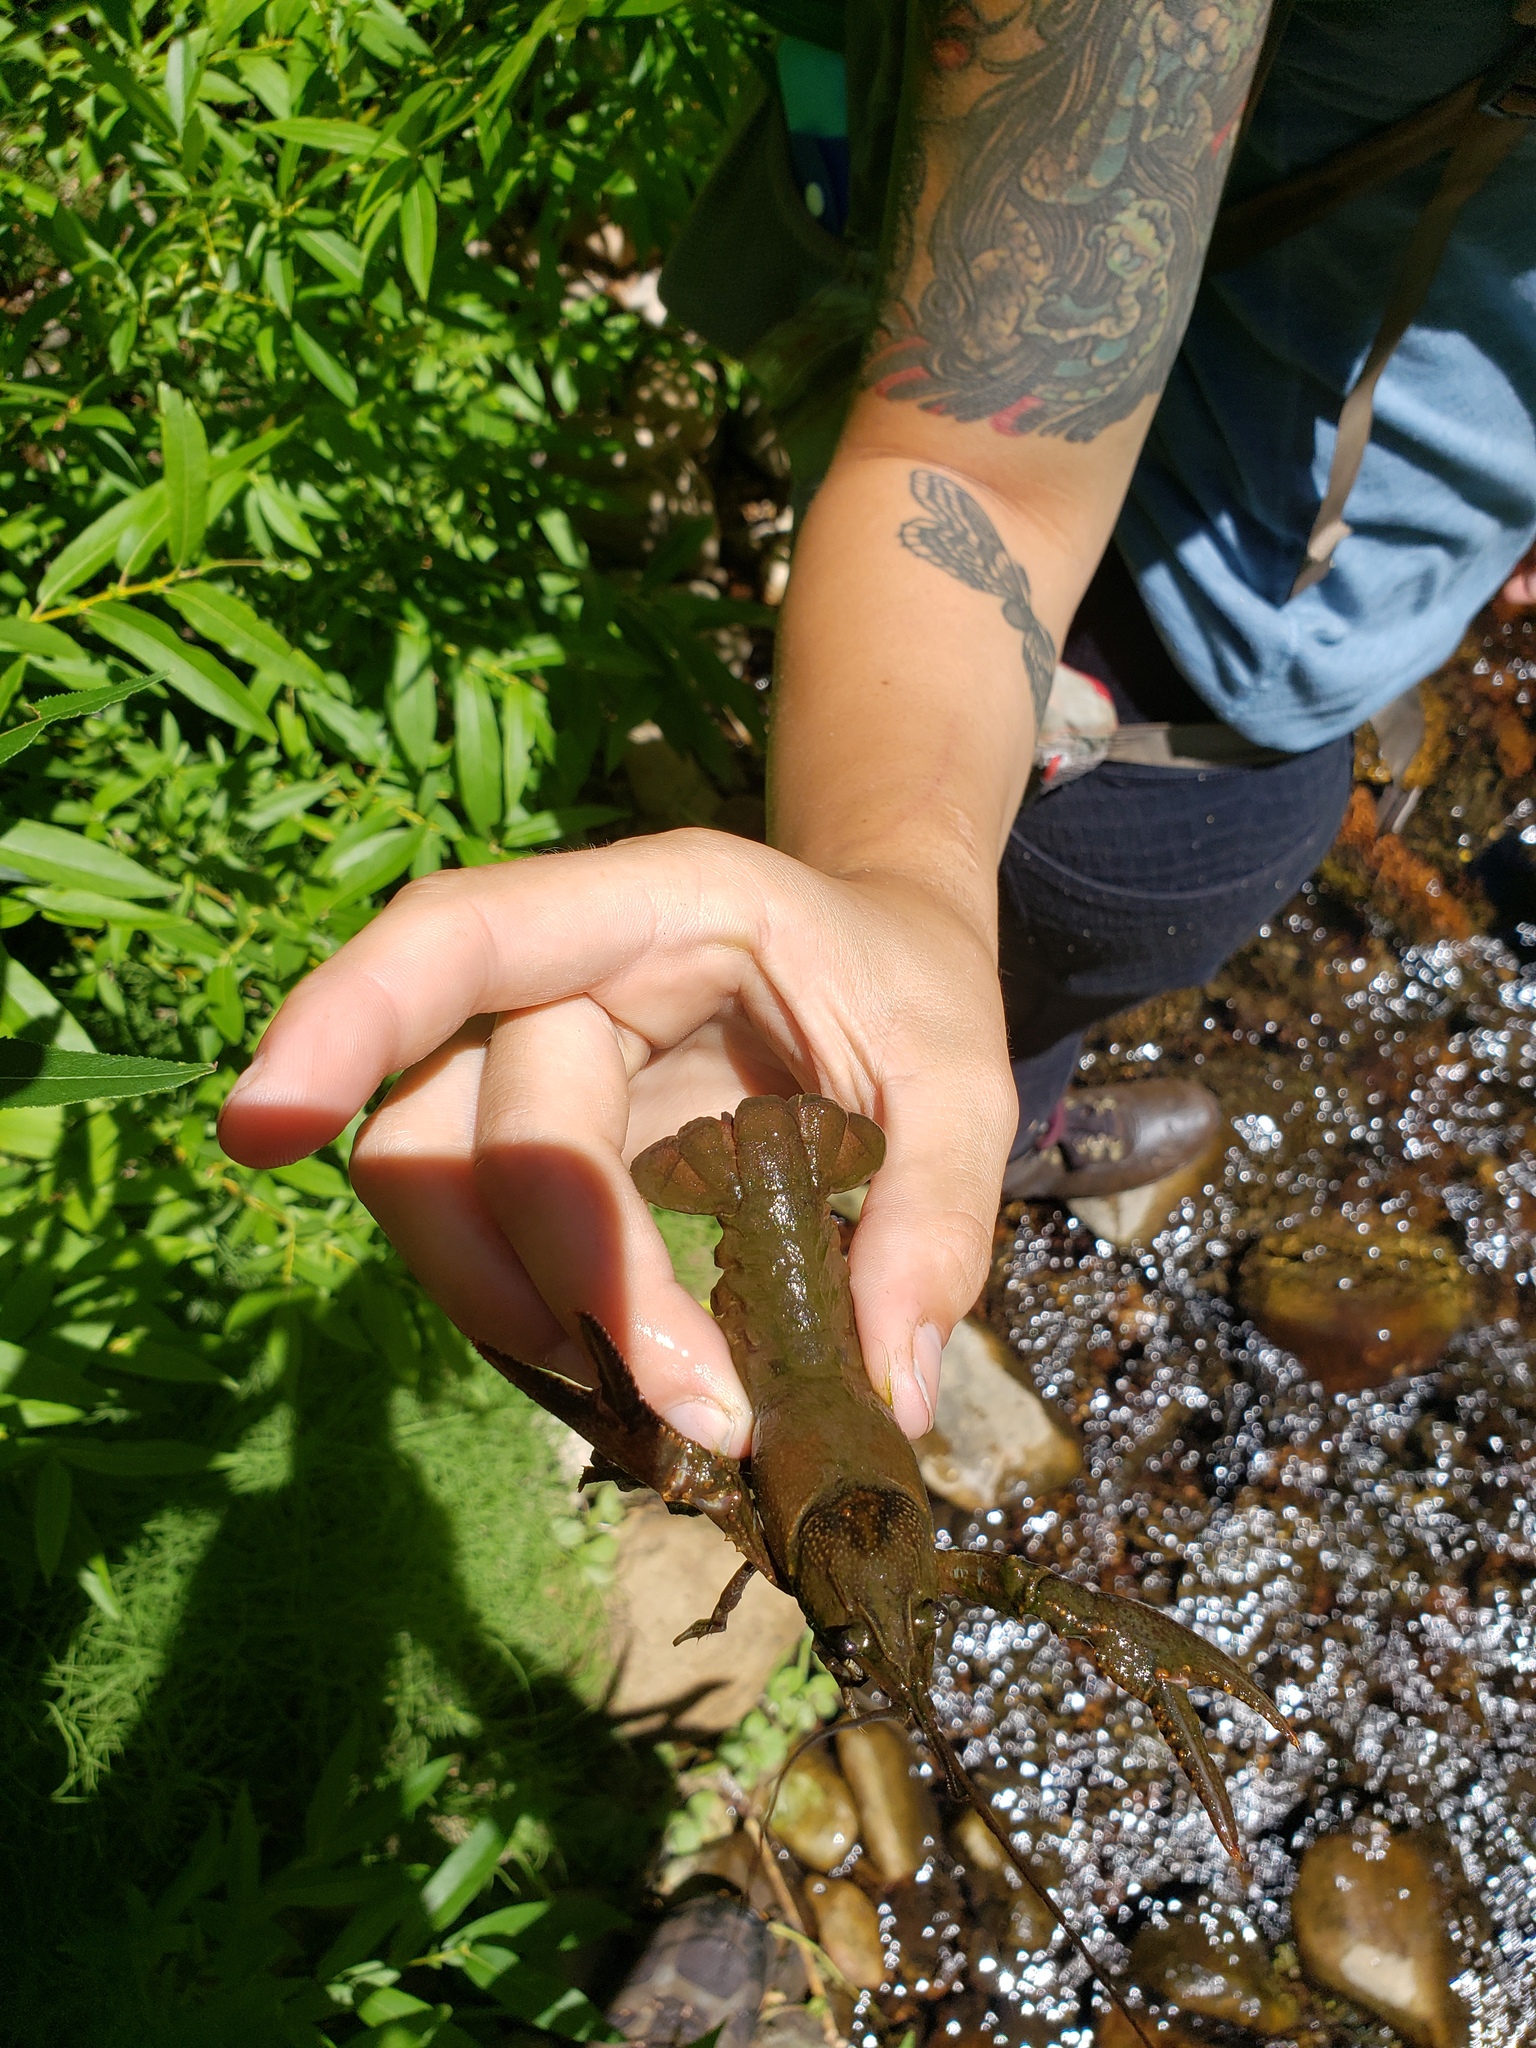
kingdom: Animalia
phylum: Arthropoda
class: Malacostraca
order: Decapoda
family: Cambaridae
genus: Faxonius
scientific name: Faxonius virilis
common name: Virile crayfish
